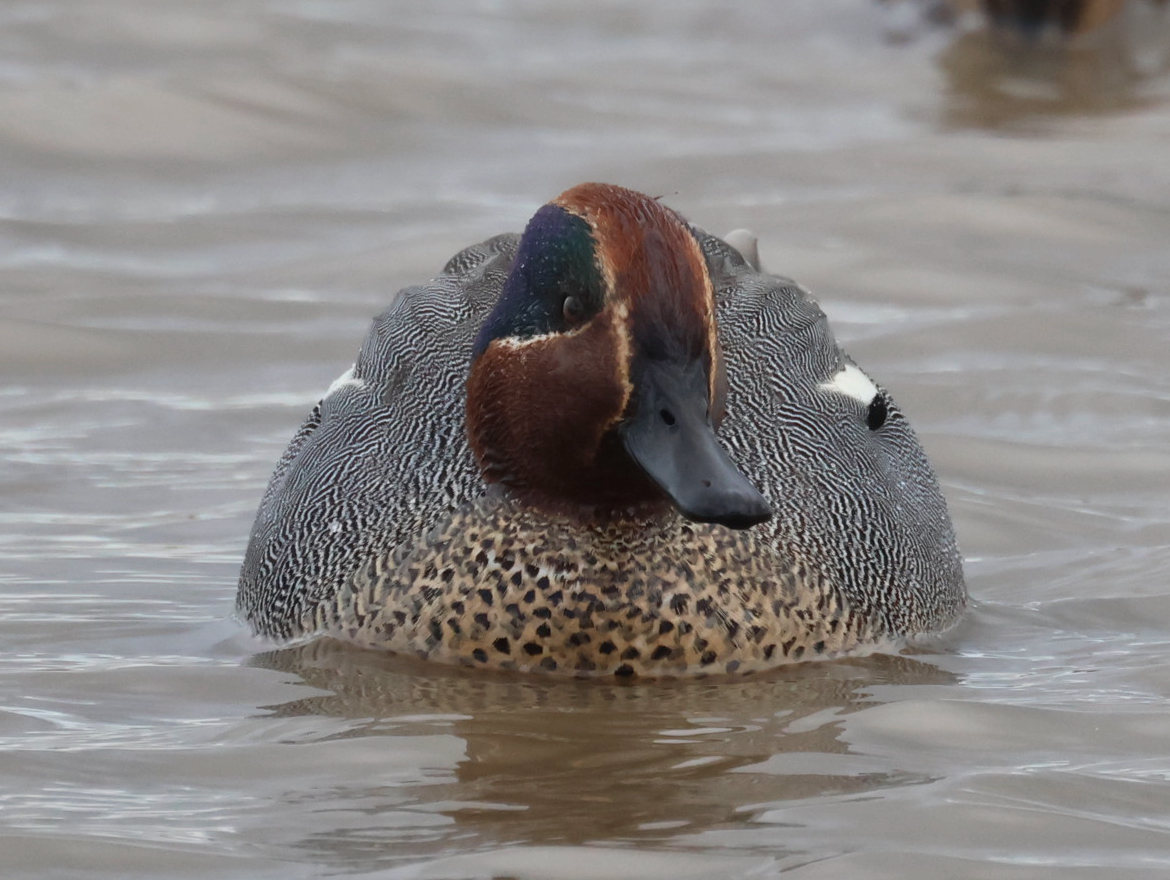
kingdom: Animalia
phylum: Chordata
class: Aves
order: Anseriformes
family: Anatidae
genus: Anas
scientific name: Anas crecca
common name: Eurasian teal
